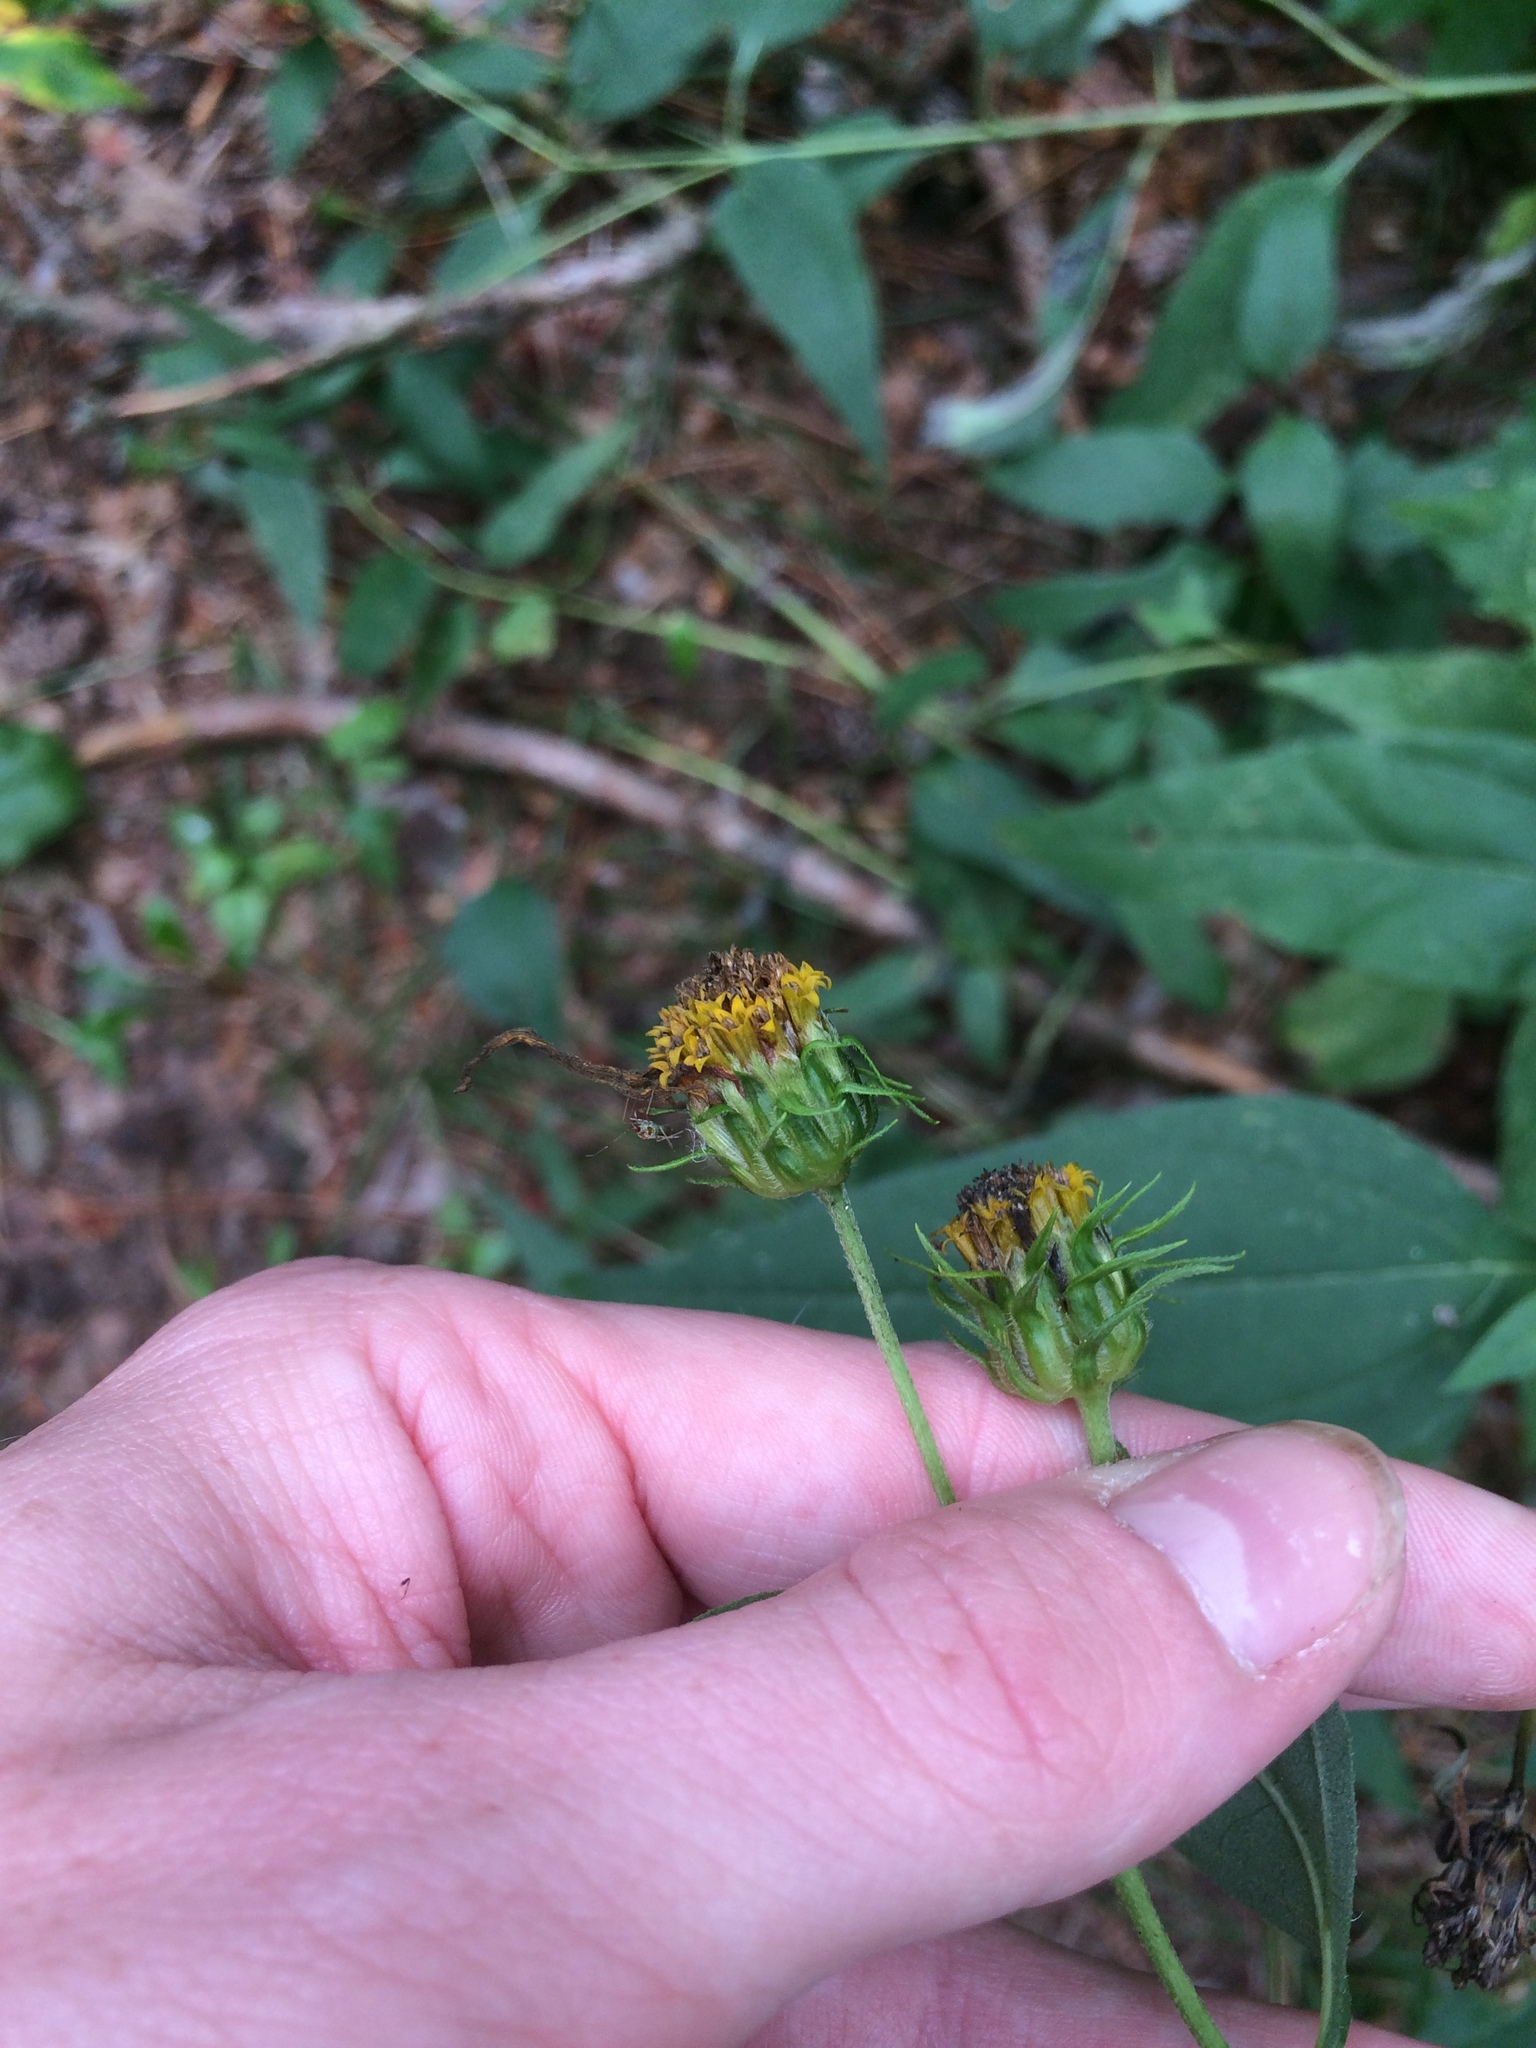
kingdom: Plantae
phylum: Tracheophyta
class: Magnoliopsida
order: Asterales
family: Asteraceae
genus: Helianthus
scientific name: Helianthus decapetalus
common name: Thin-leaved sunflower
